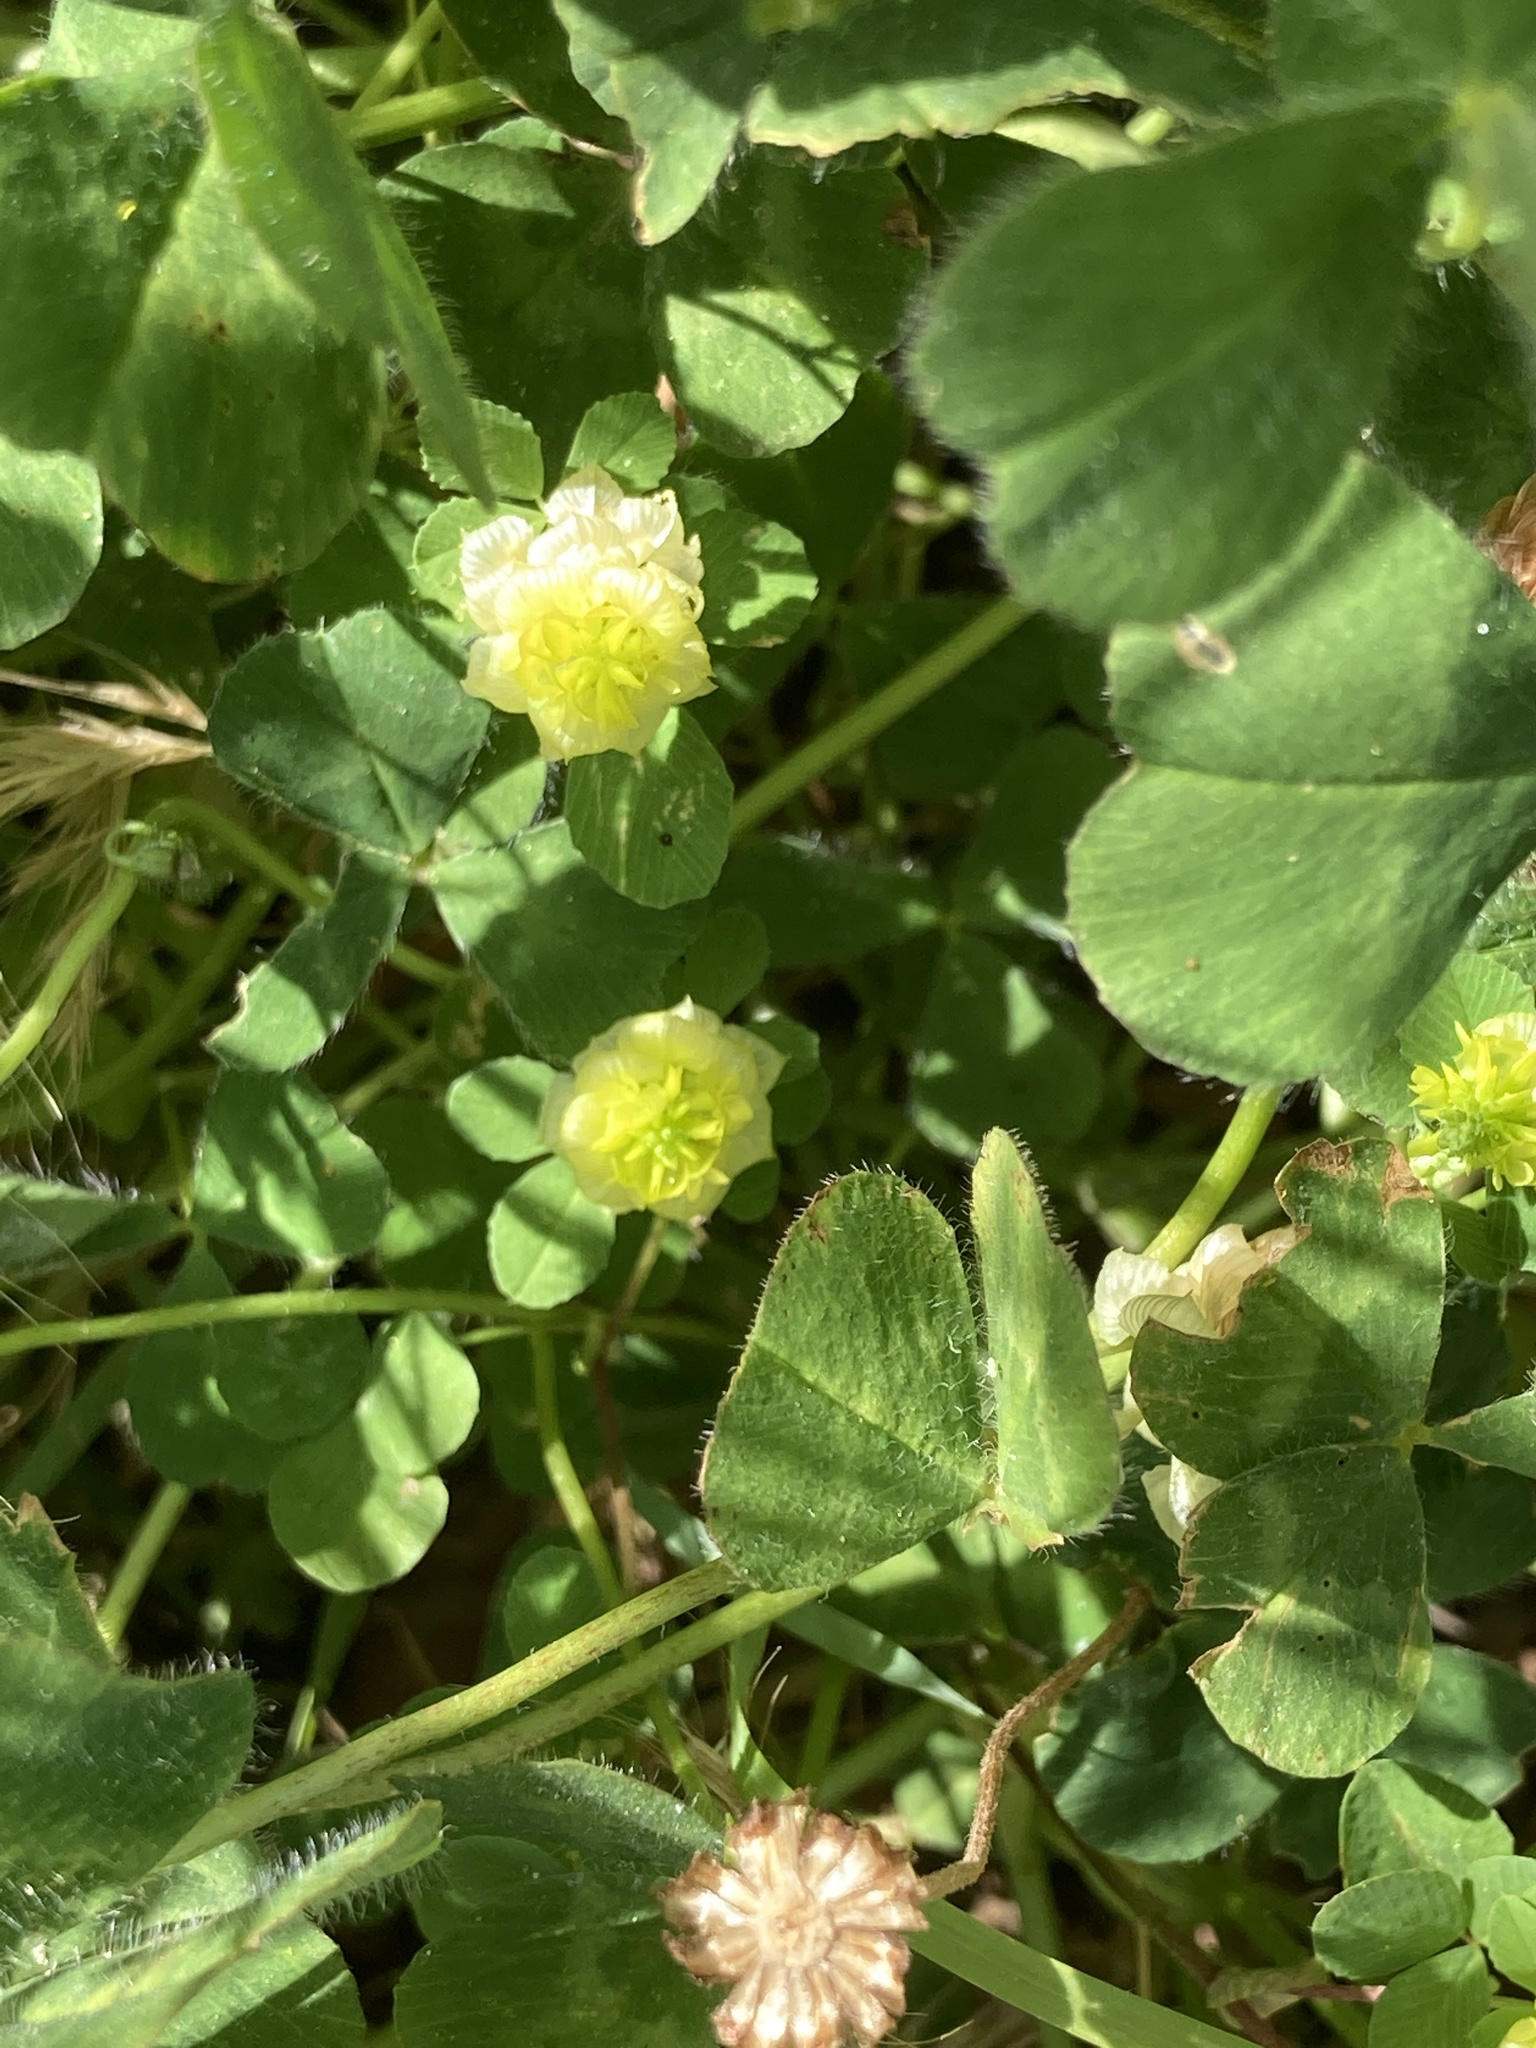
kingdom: Plantae
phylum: Tracheophyta
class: Magnoliopsida
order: Fabales
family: Fabaceae
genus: Trifolium
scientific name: Trifolium campestre
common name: Field clover
